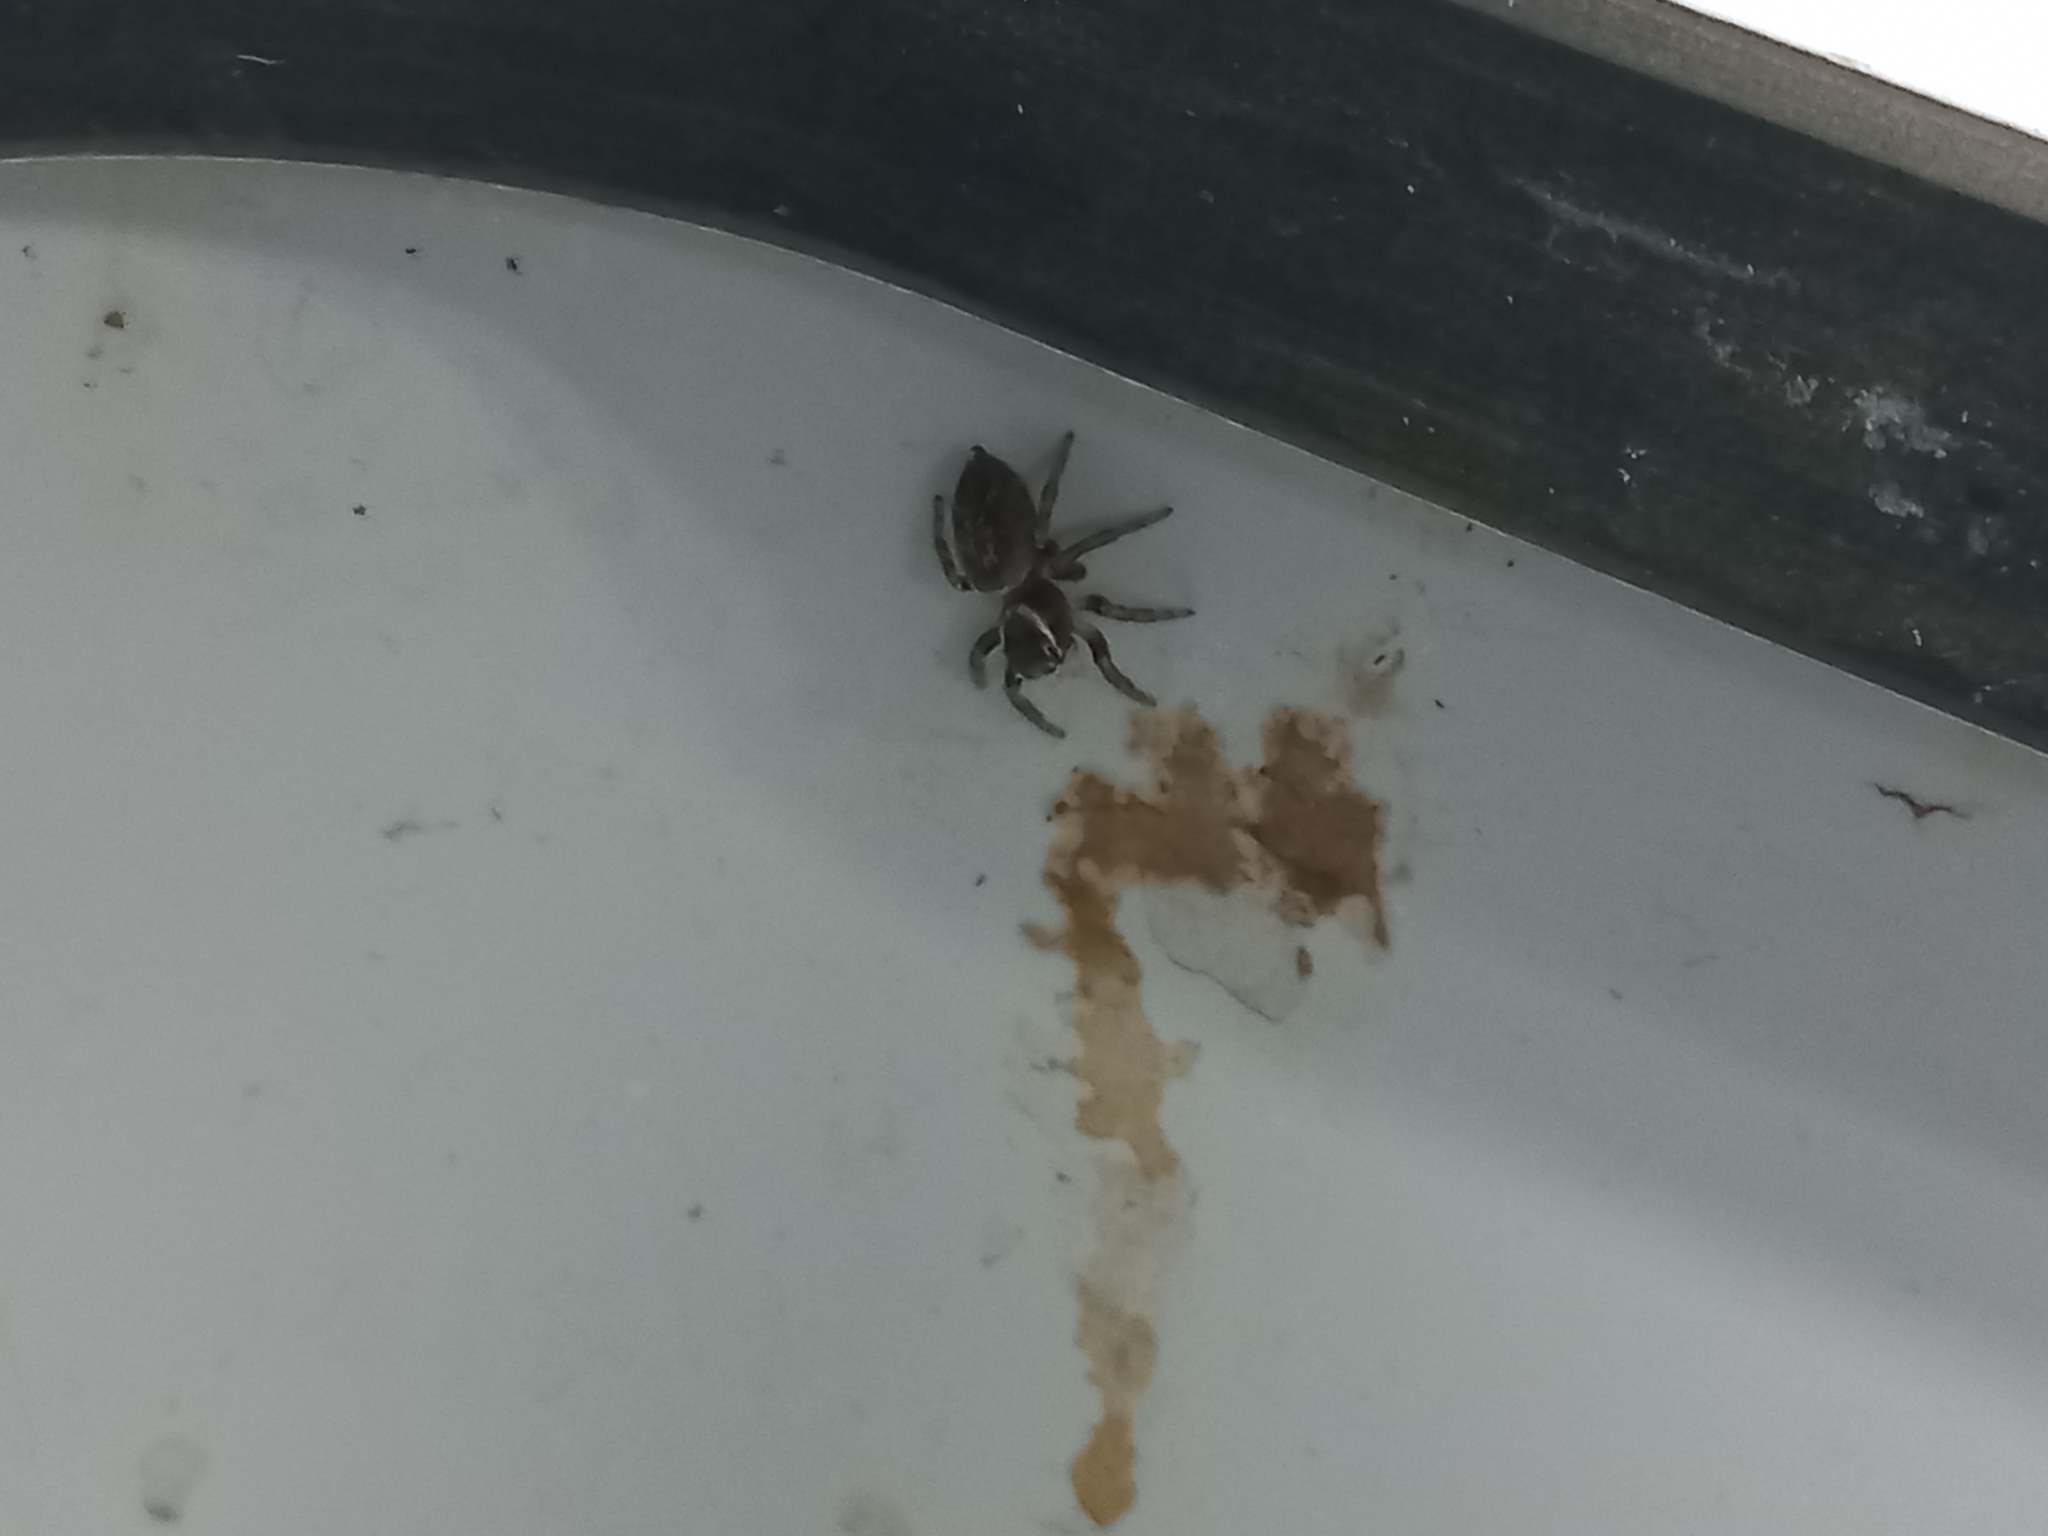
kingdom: Animalia
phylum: Arthropoda
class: Arachnida
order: Araneae
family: Salticidae
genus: Maratus
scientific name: Maratus griseus
